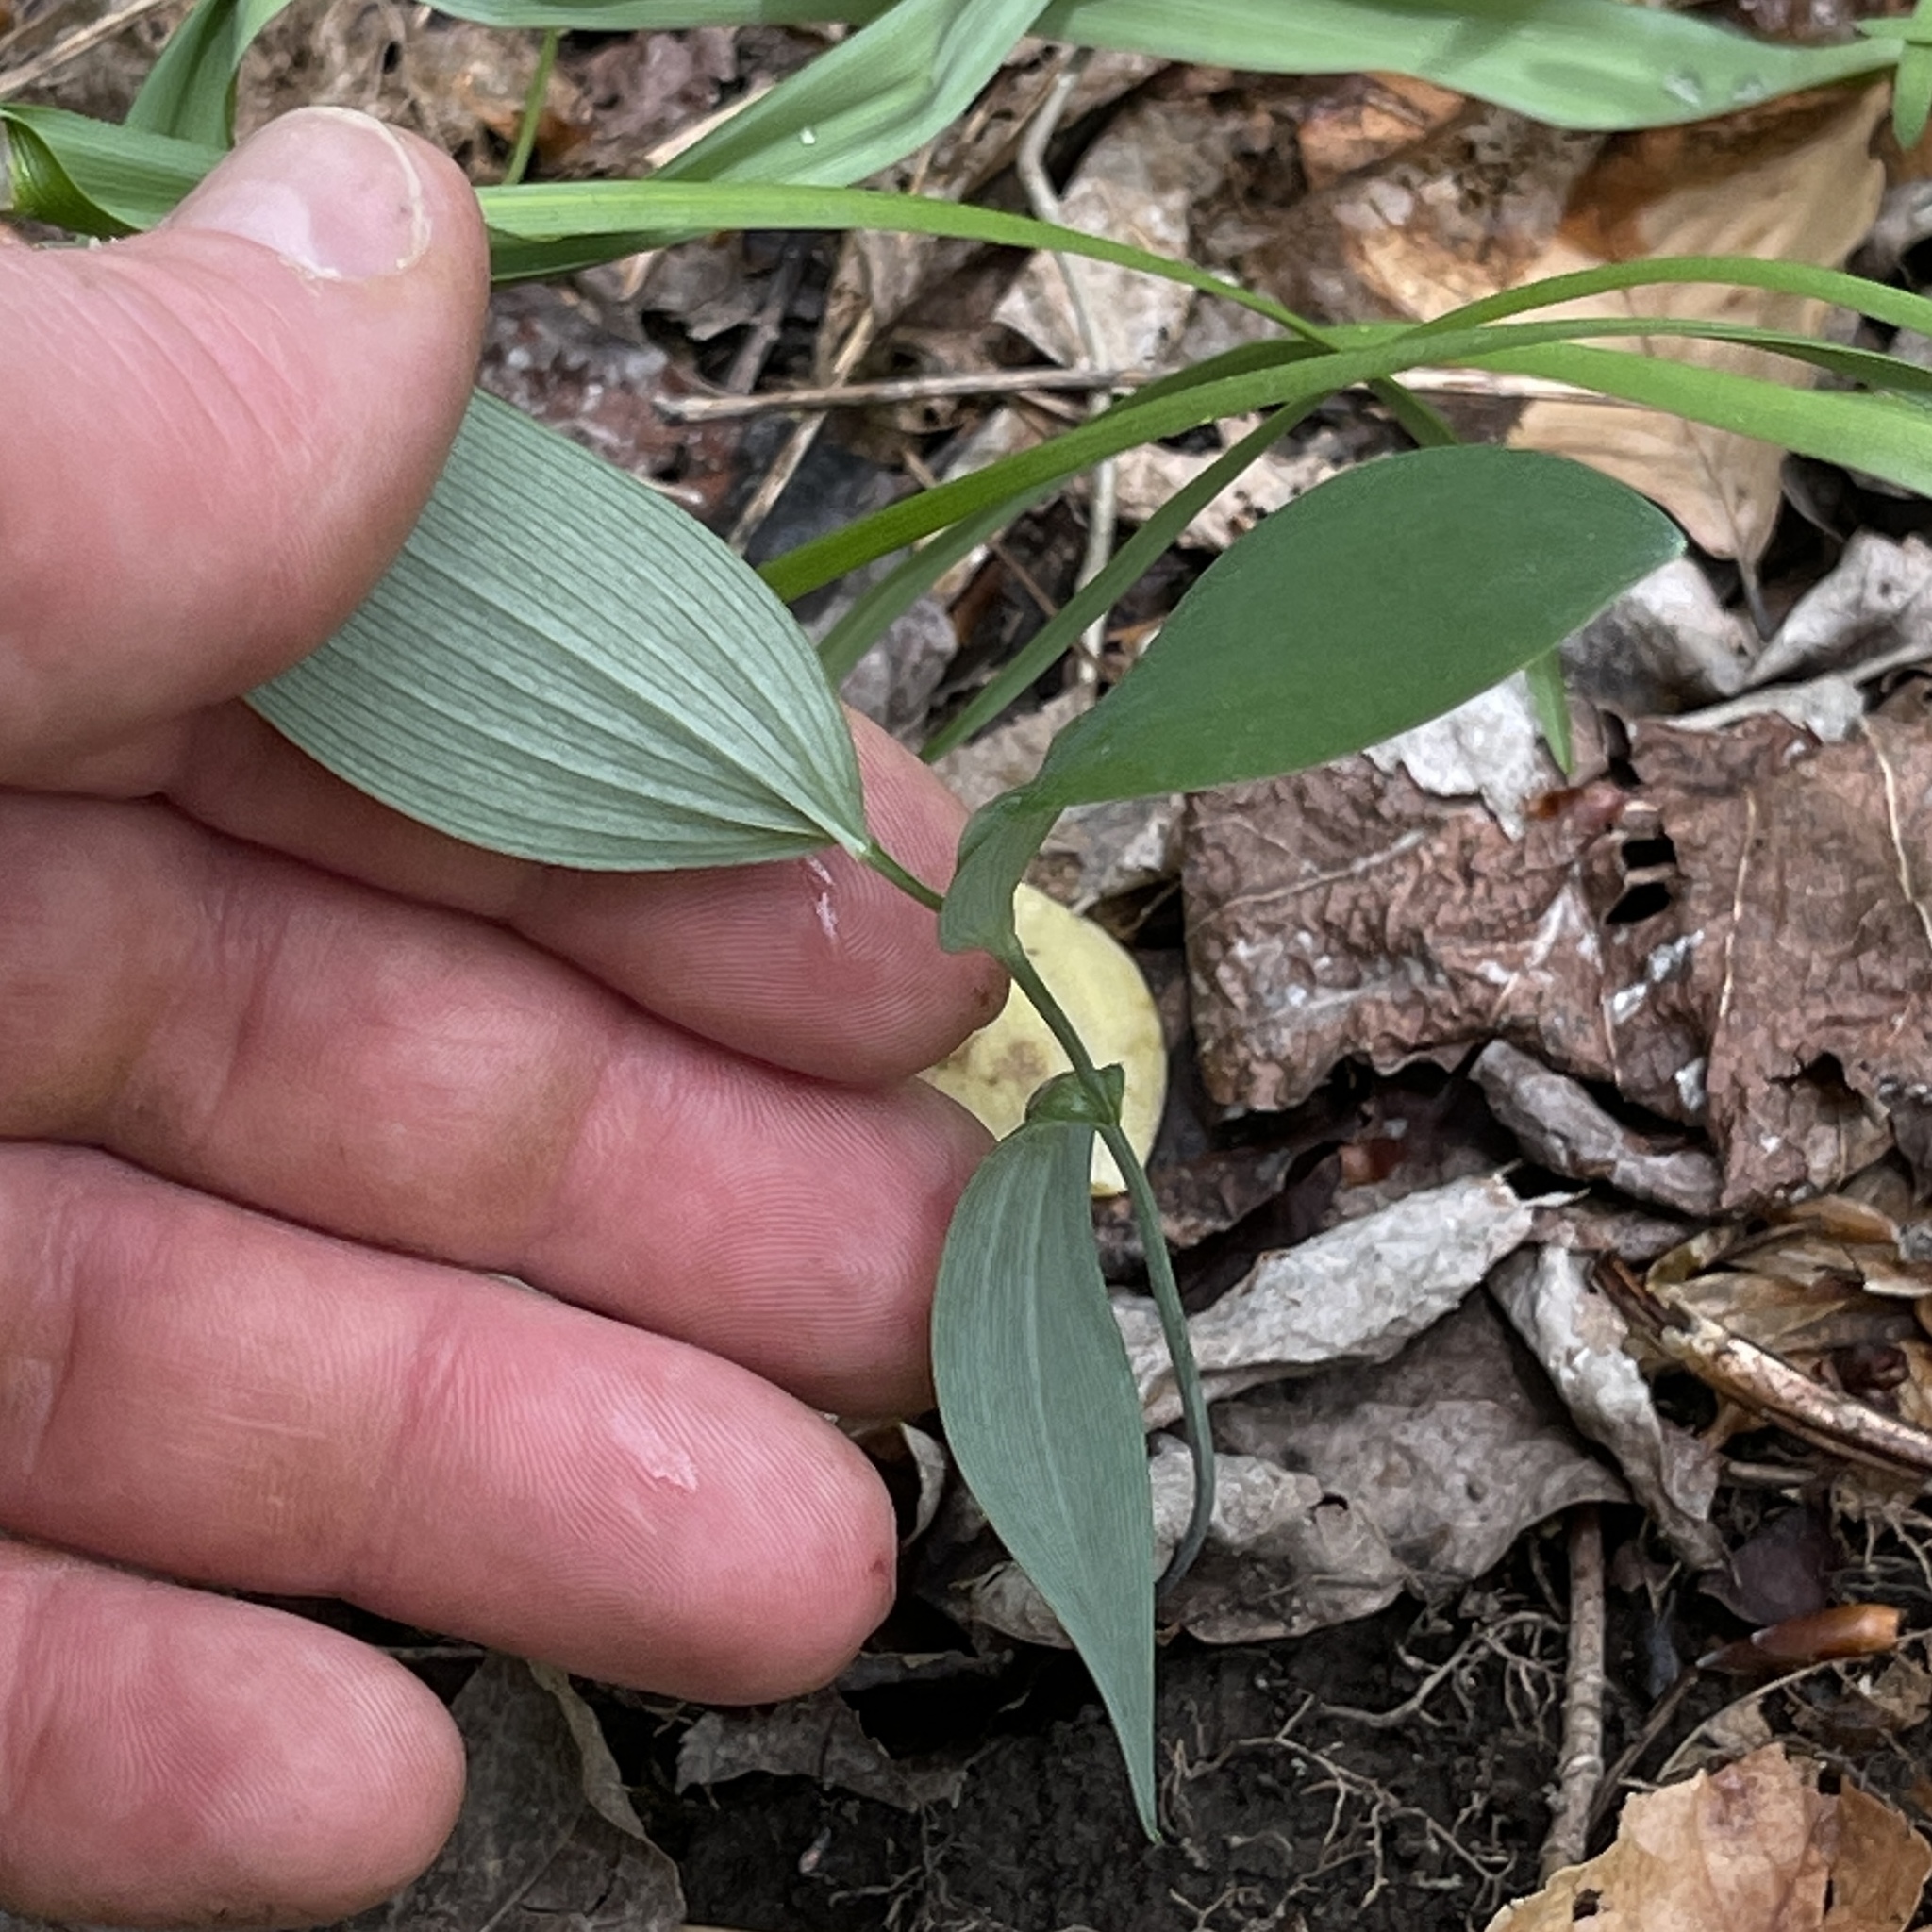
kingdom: Plantae
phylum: Tracheophyta
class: Liliopsida
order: Liliales
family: Colchicaceae
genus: Uvularia
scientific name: Uvularia sessilifolia
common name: Straw-lily
